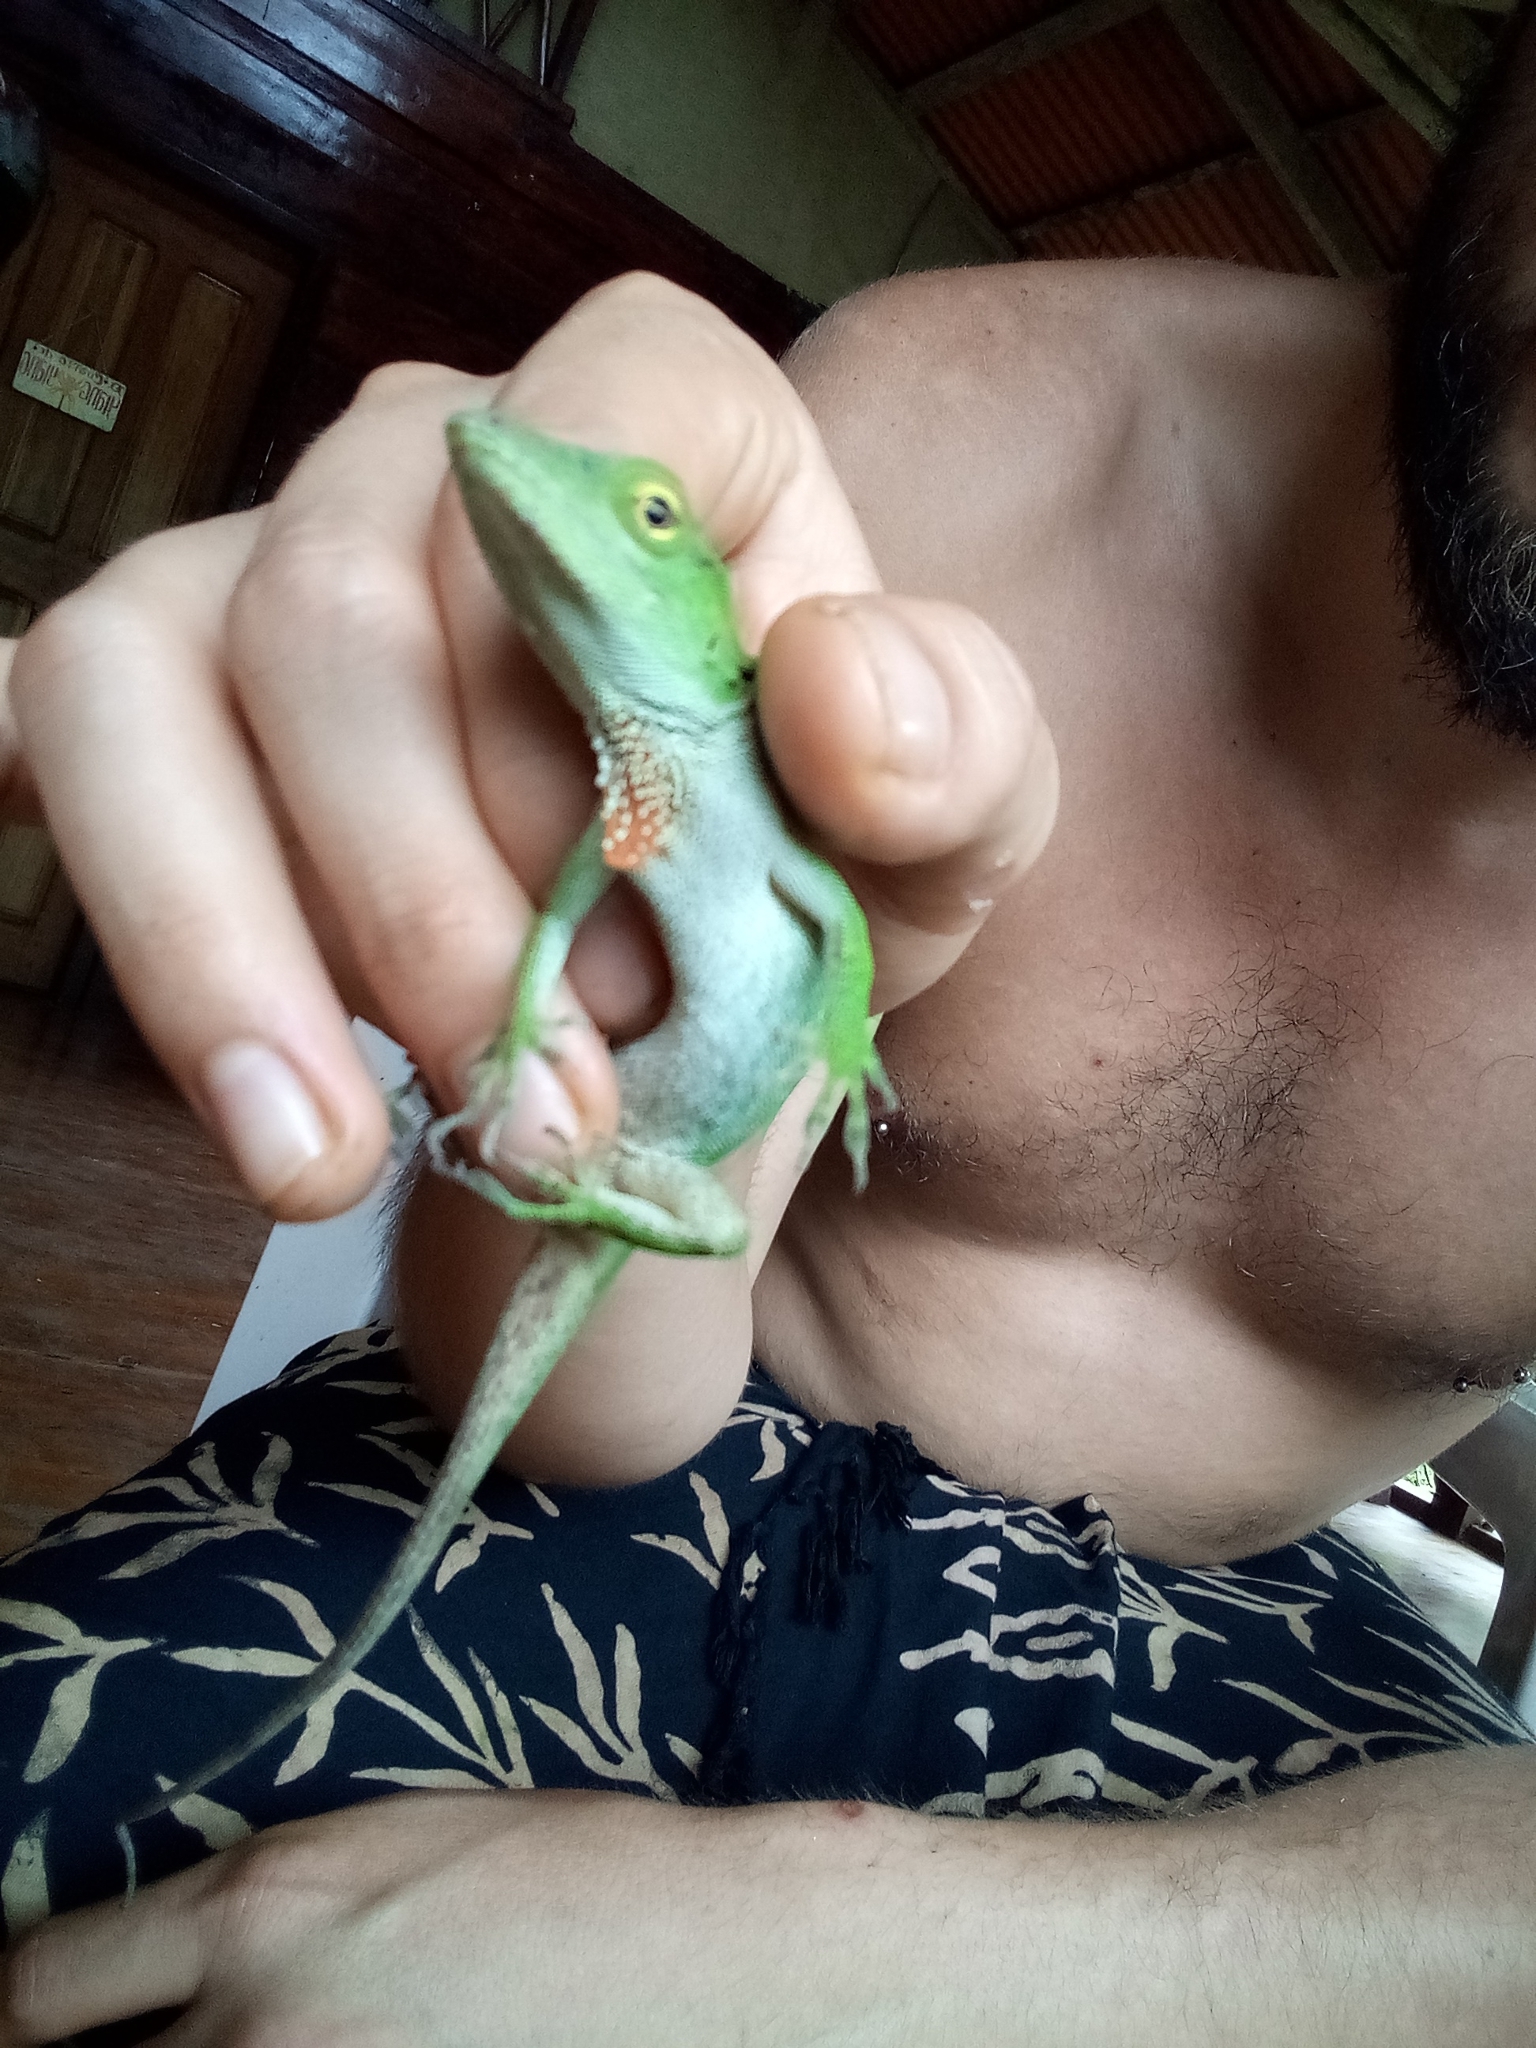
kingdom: Animalia
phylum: Chordata
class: Squamata
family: Dactyloidae
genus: Anolis
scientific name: Anolis biporcatus
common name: Giant green anole
